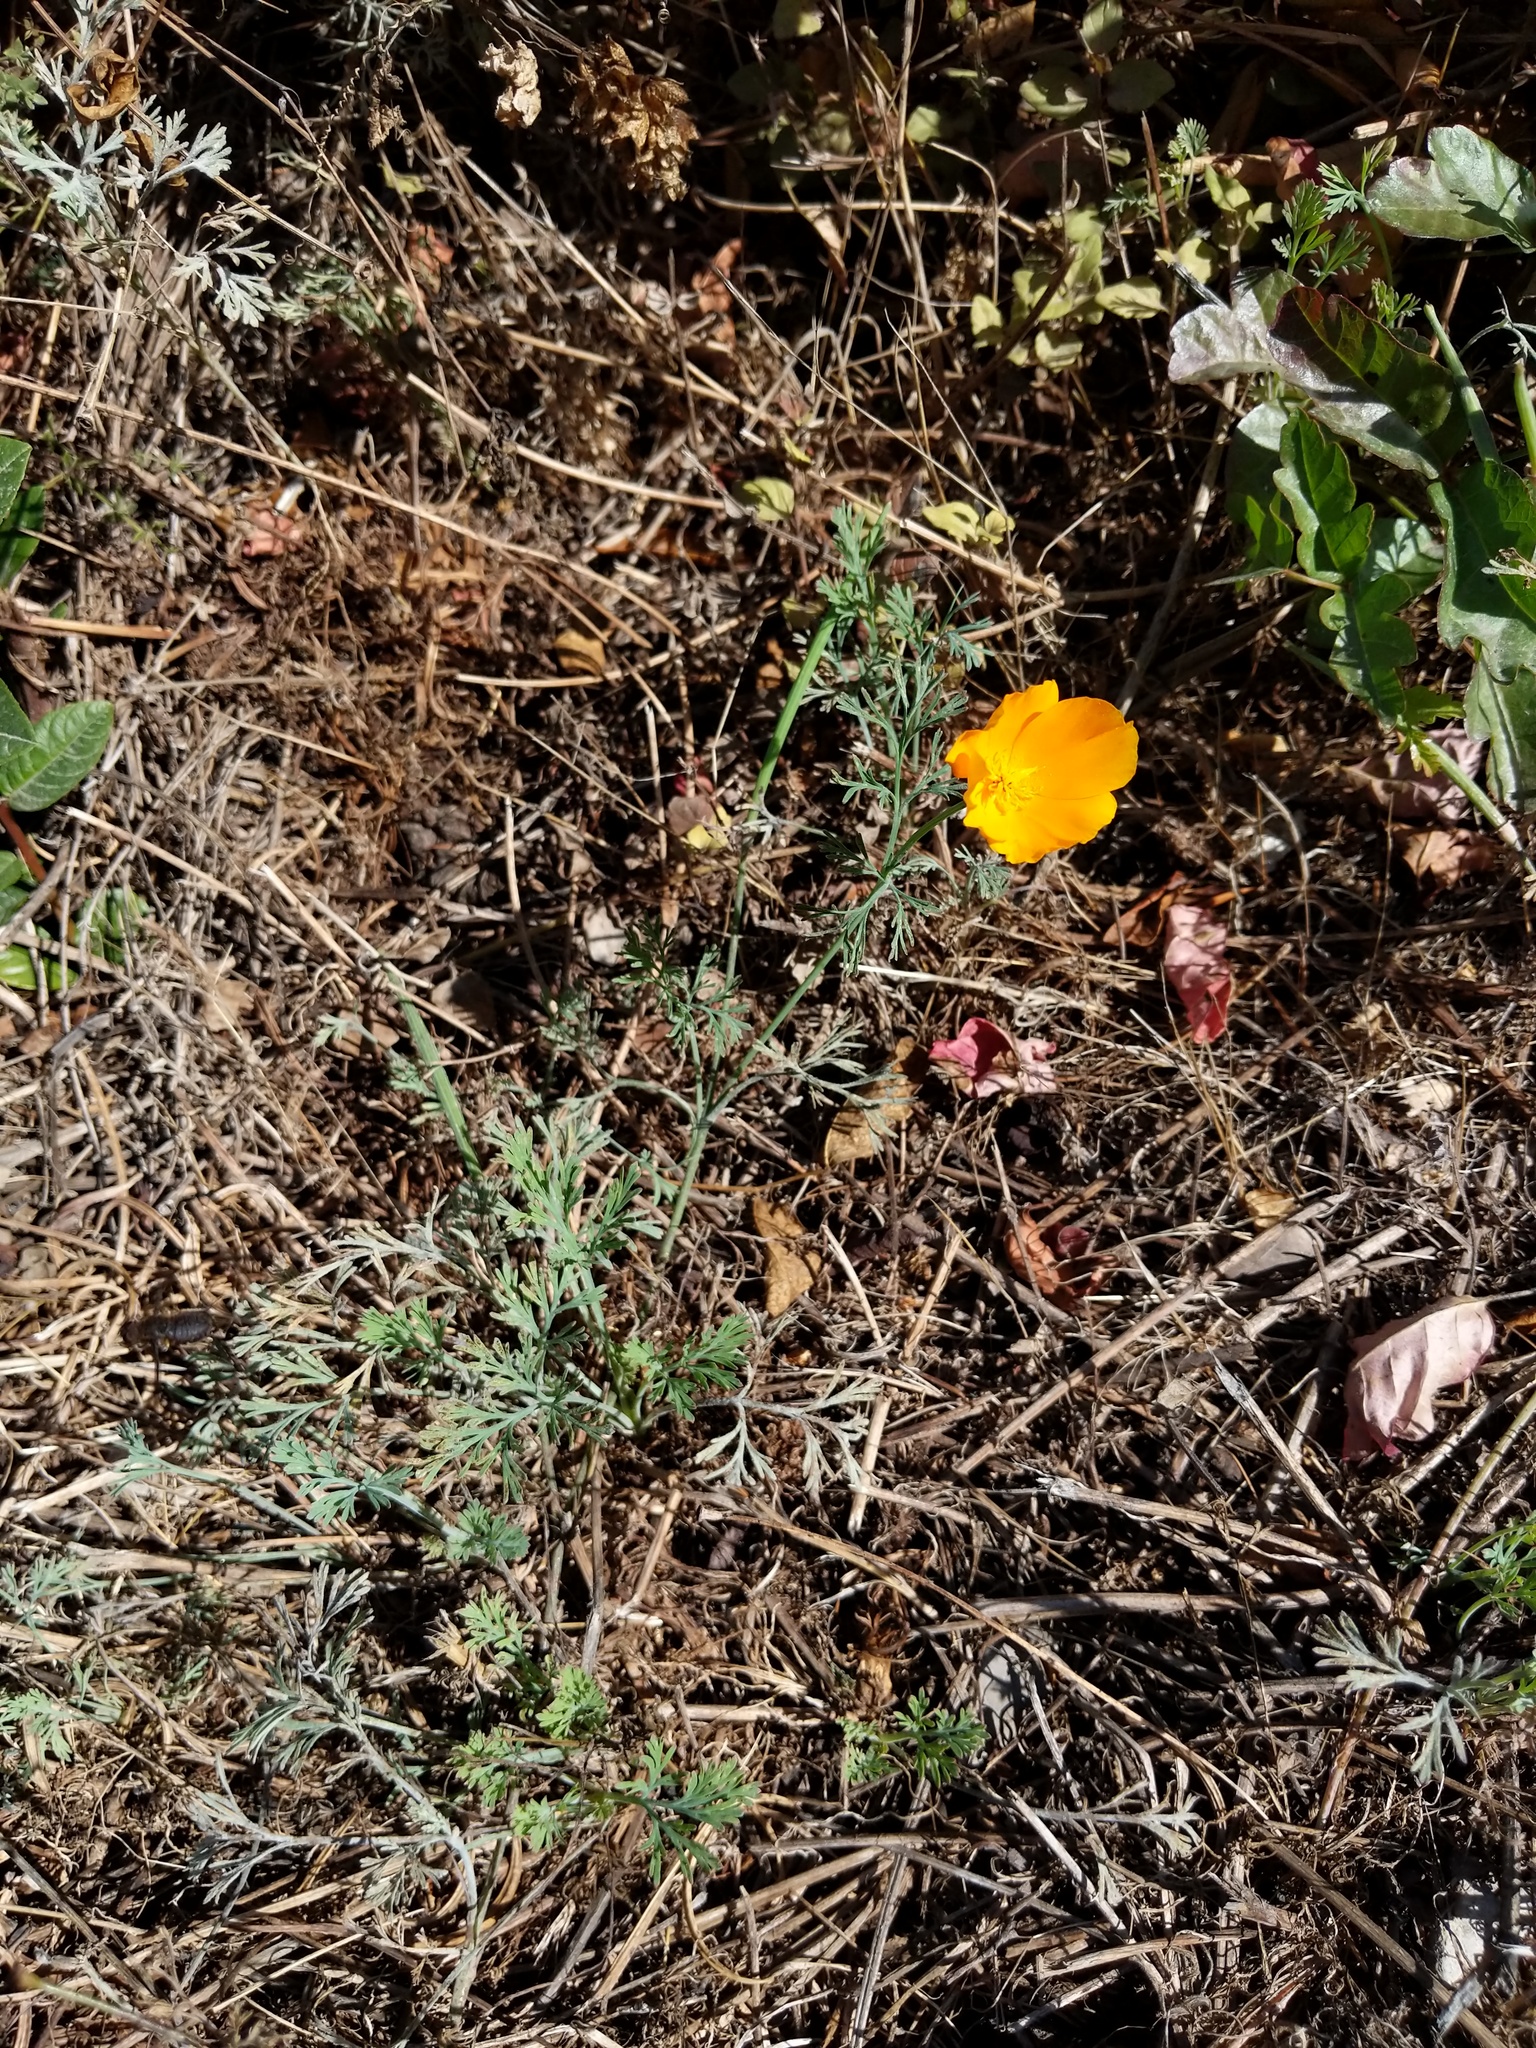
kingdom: Plantae
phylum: Tracheophyta
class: Magnoliopsida
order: Ranunculales
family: Papaveraceae
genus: Eschscholzia
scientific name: Eschscholzia californica
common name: California poppy
